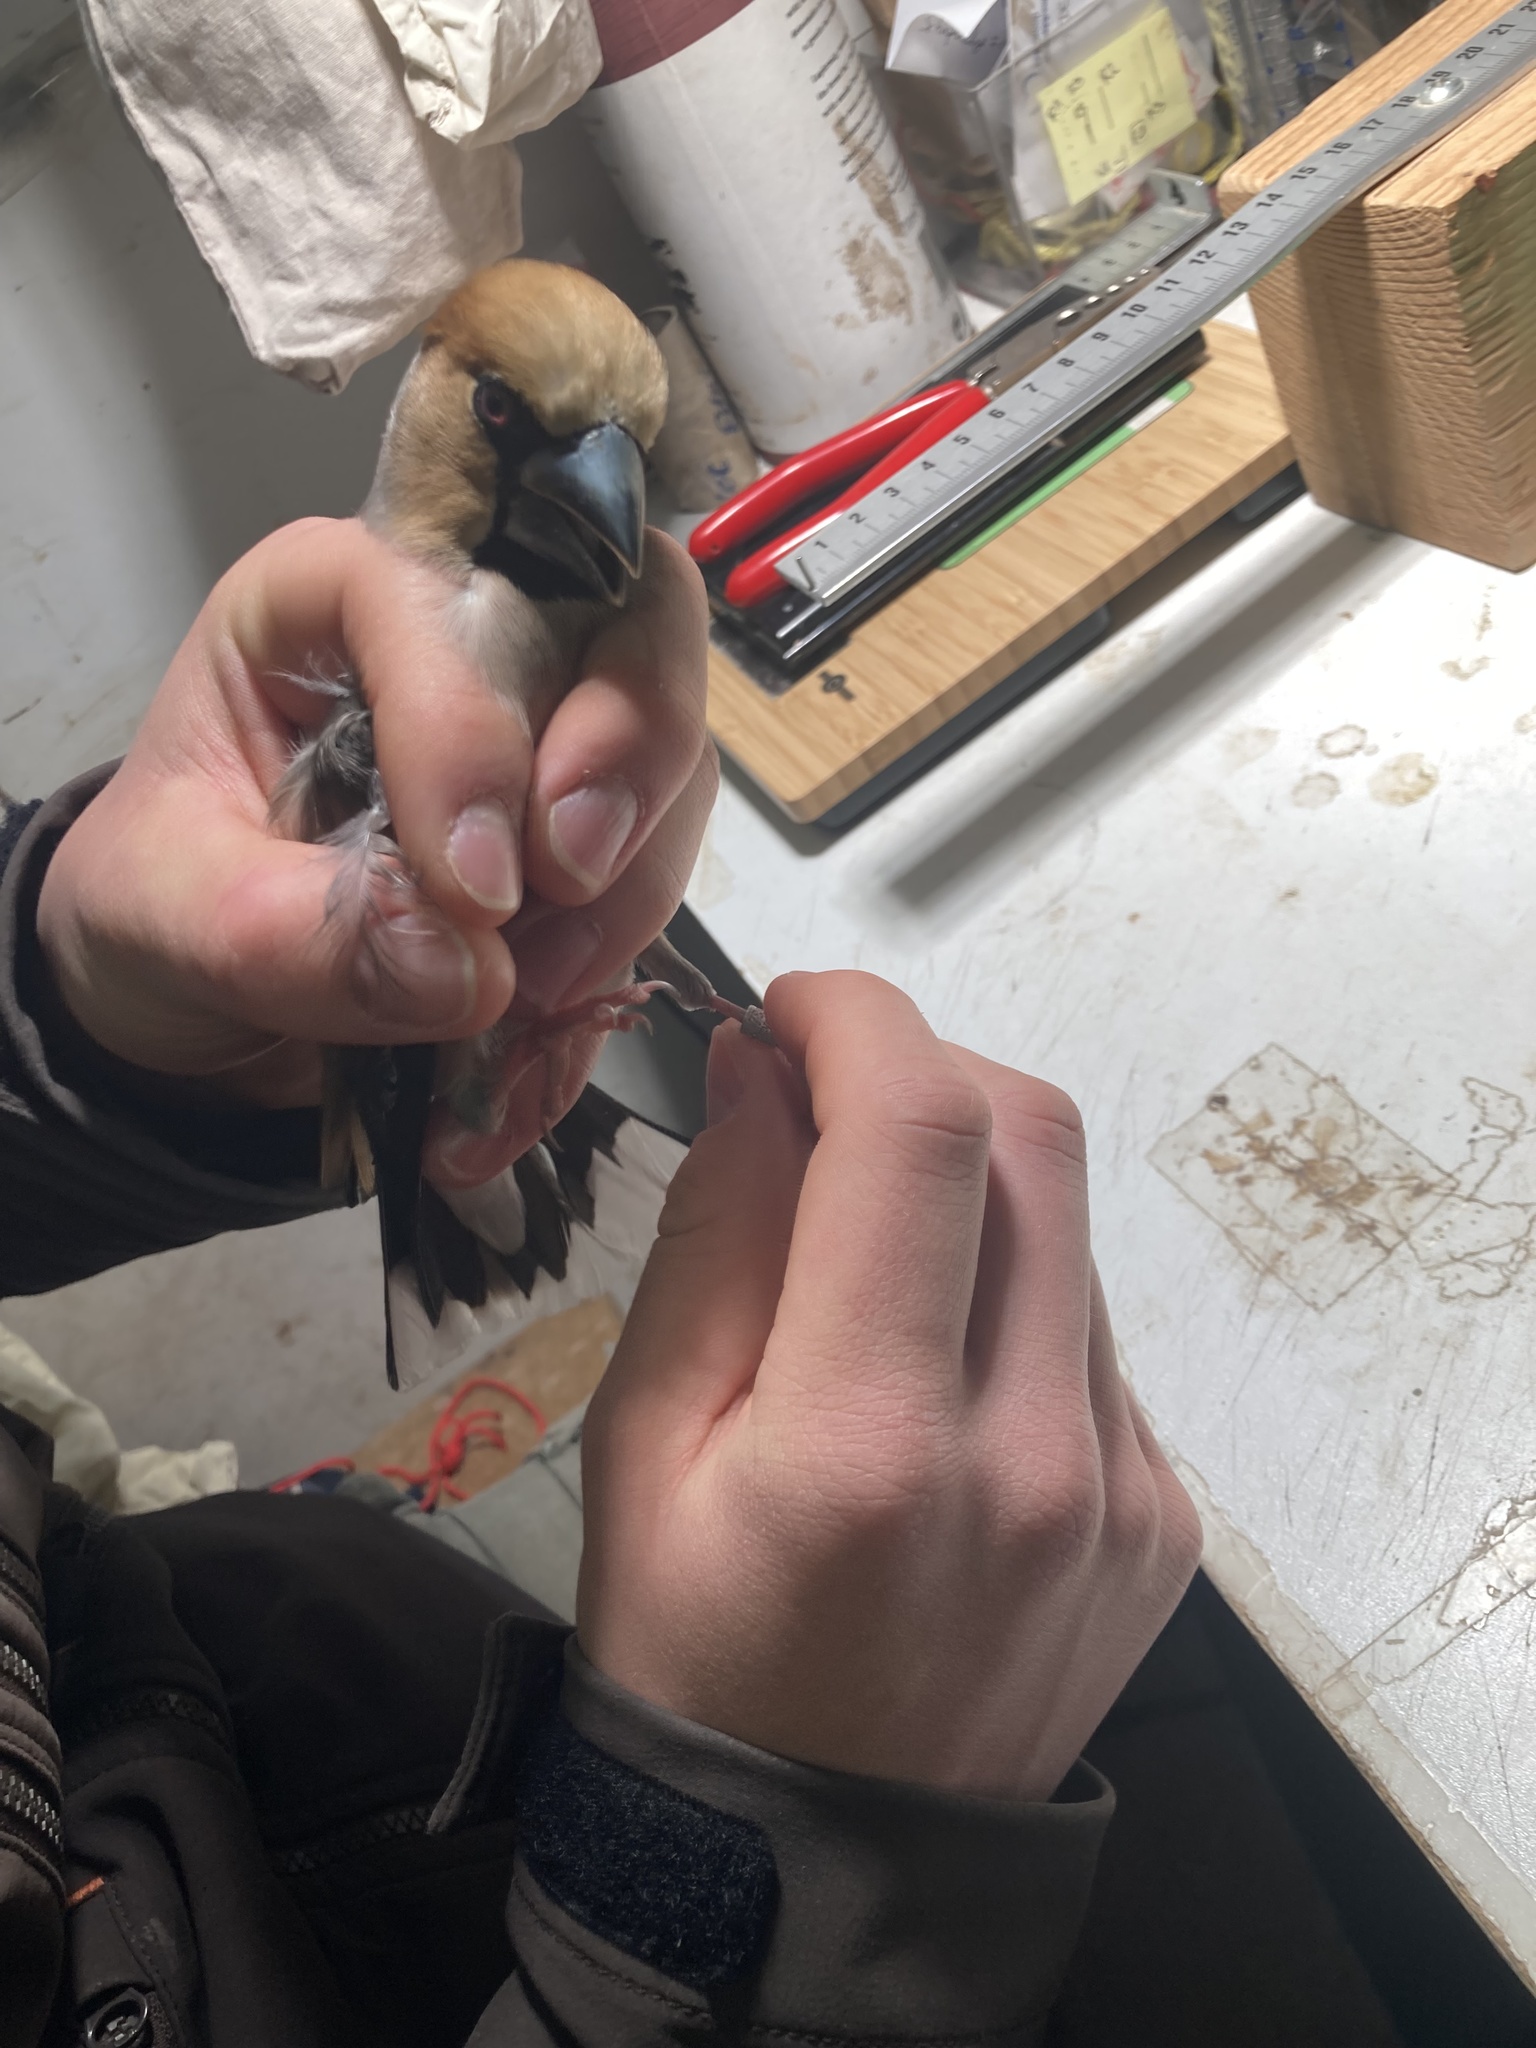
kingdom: Animalia
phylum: Chordata
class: Aves
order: Passeriformes
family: Fringillidae
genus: Coccothraustes
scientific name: Coccothraustes coccothraustes
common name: Hawfinch
